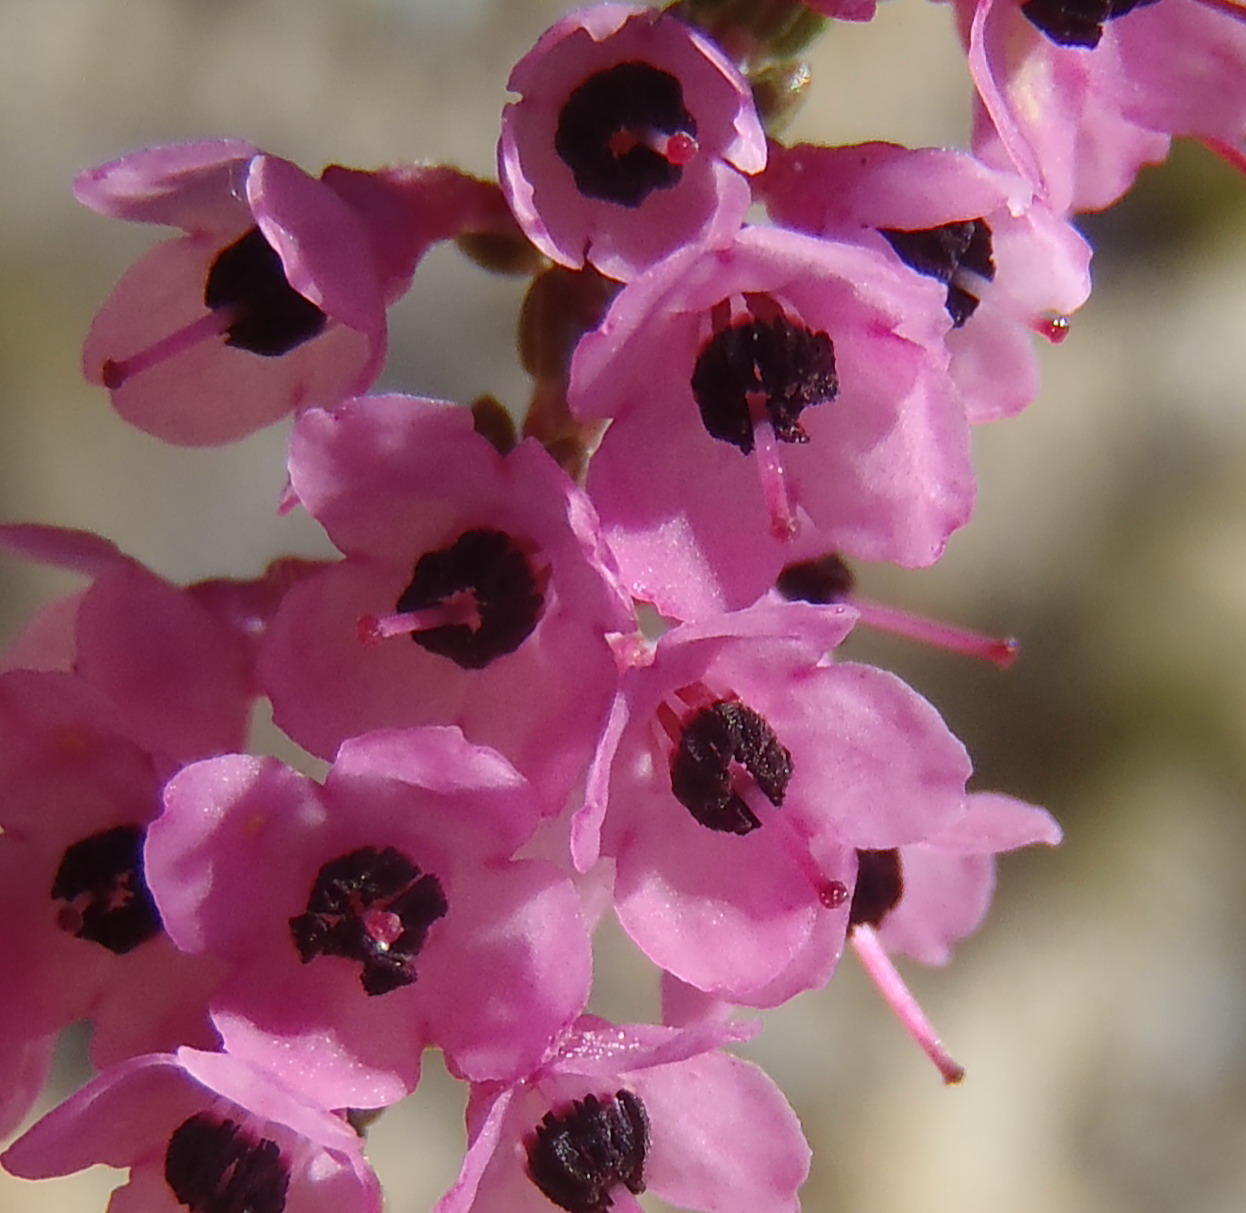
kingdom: Plantae
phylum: Tracheophyta
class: Magnoliopsida
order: Ericales
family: Ericaceae
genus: Erica
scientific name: Erica melanthera
